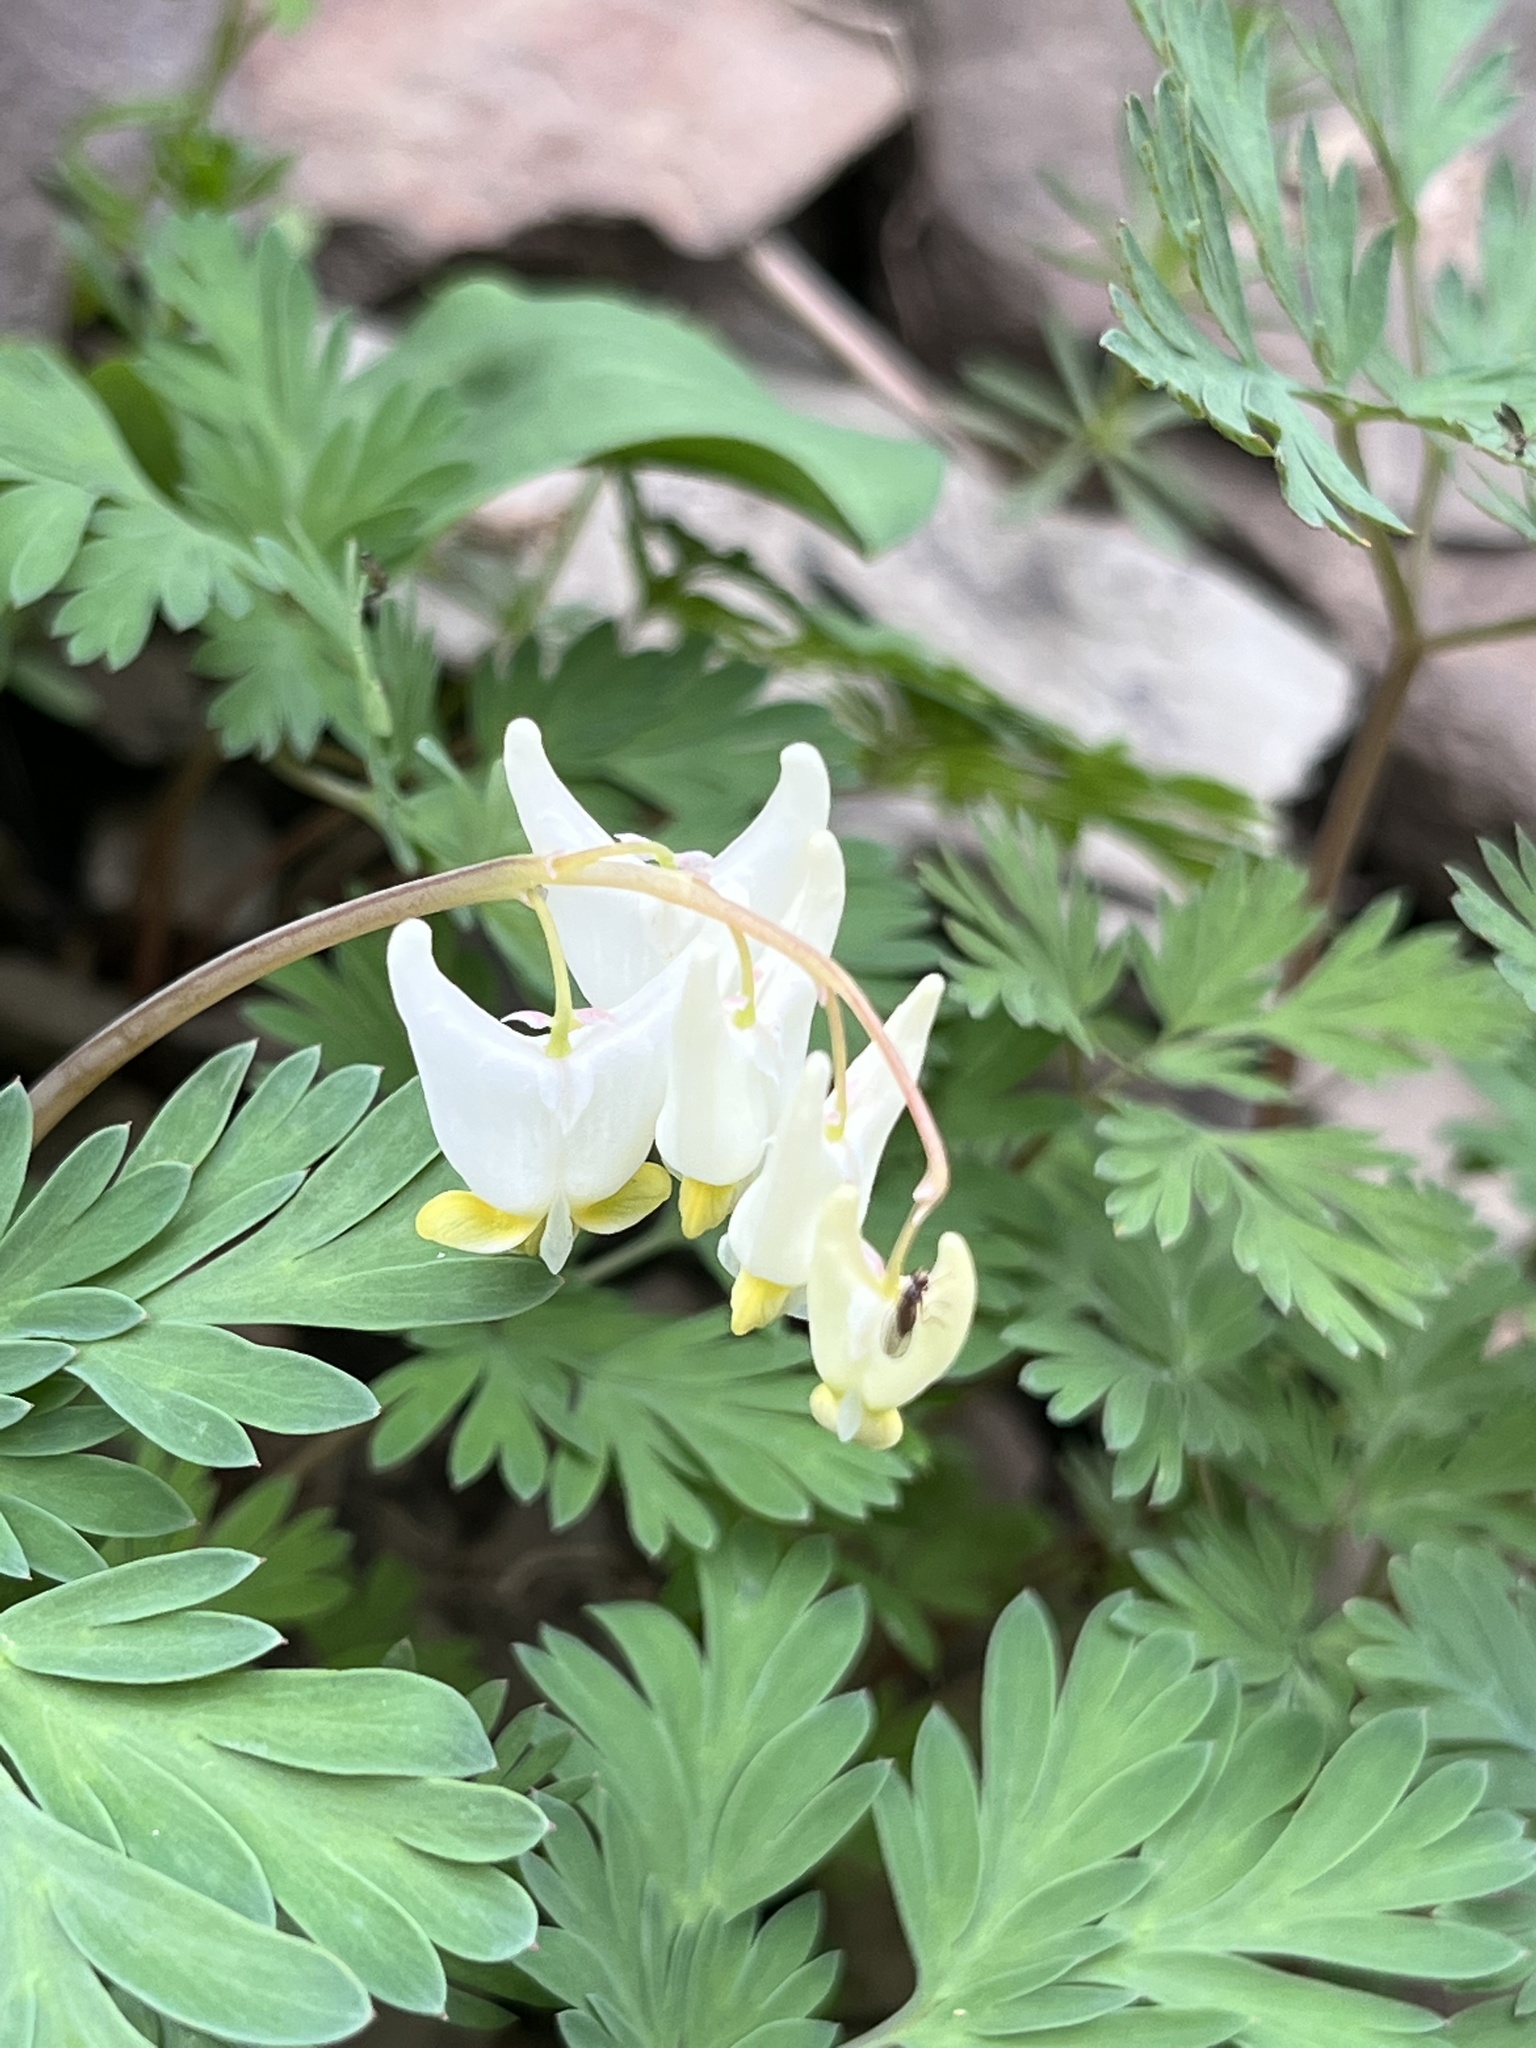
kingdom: Plantae
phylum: Tracheophyta
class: Magnoliopsida
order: Ranunculales
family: Papaveraceae
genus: Dicentra
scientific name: Dicentra cucullaria
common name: Dutchman's breeches
